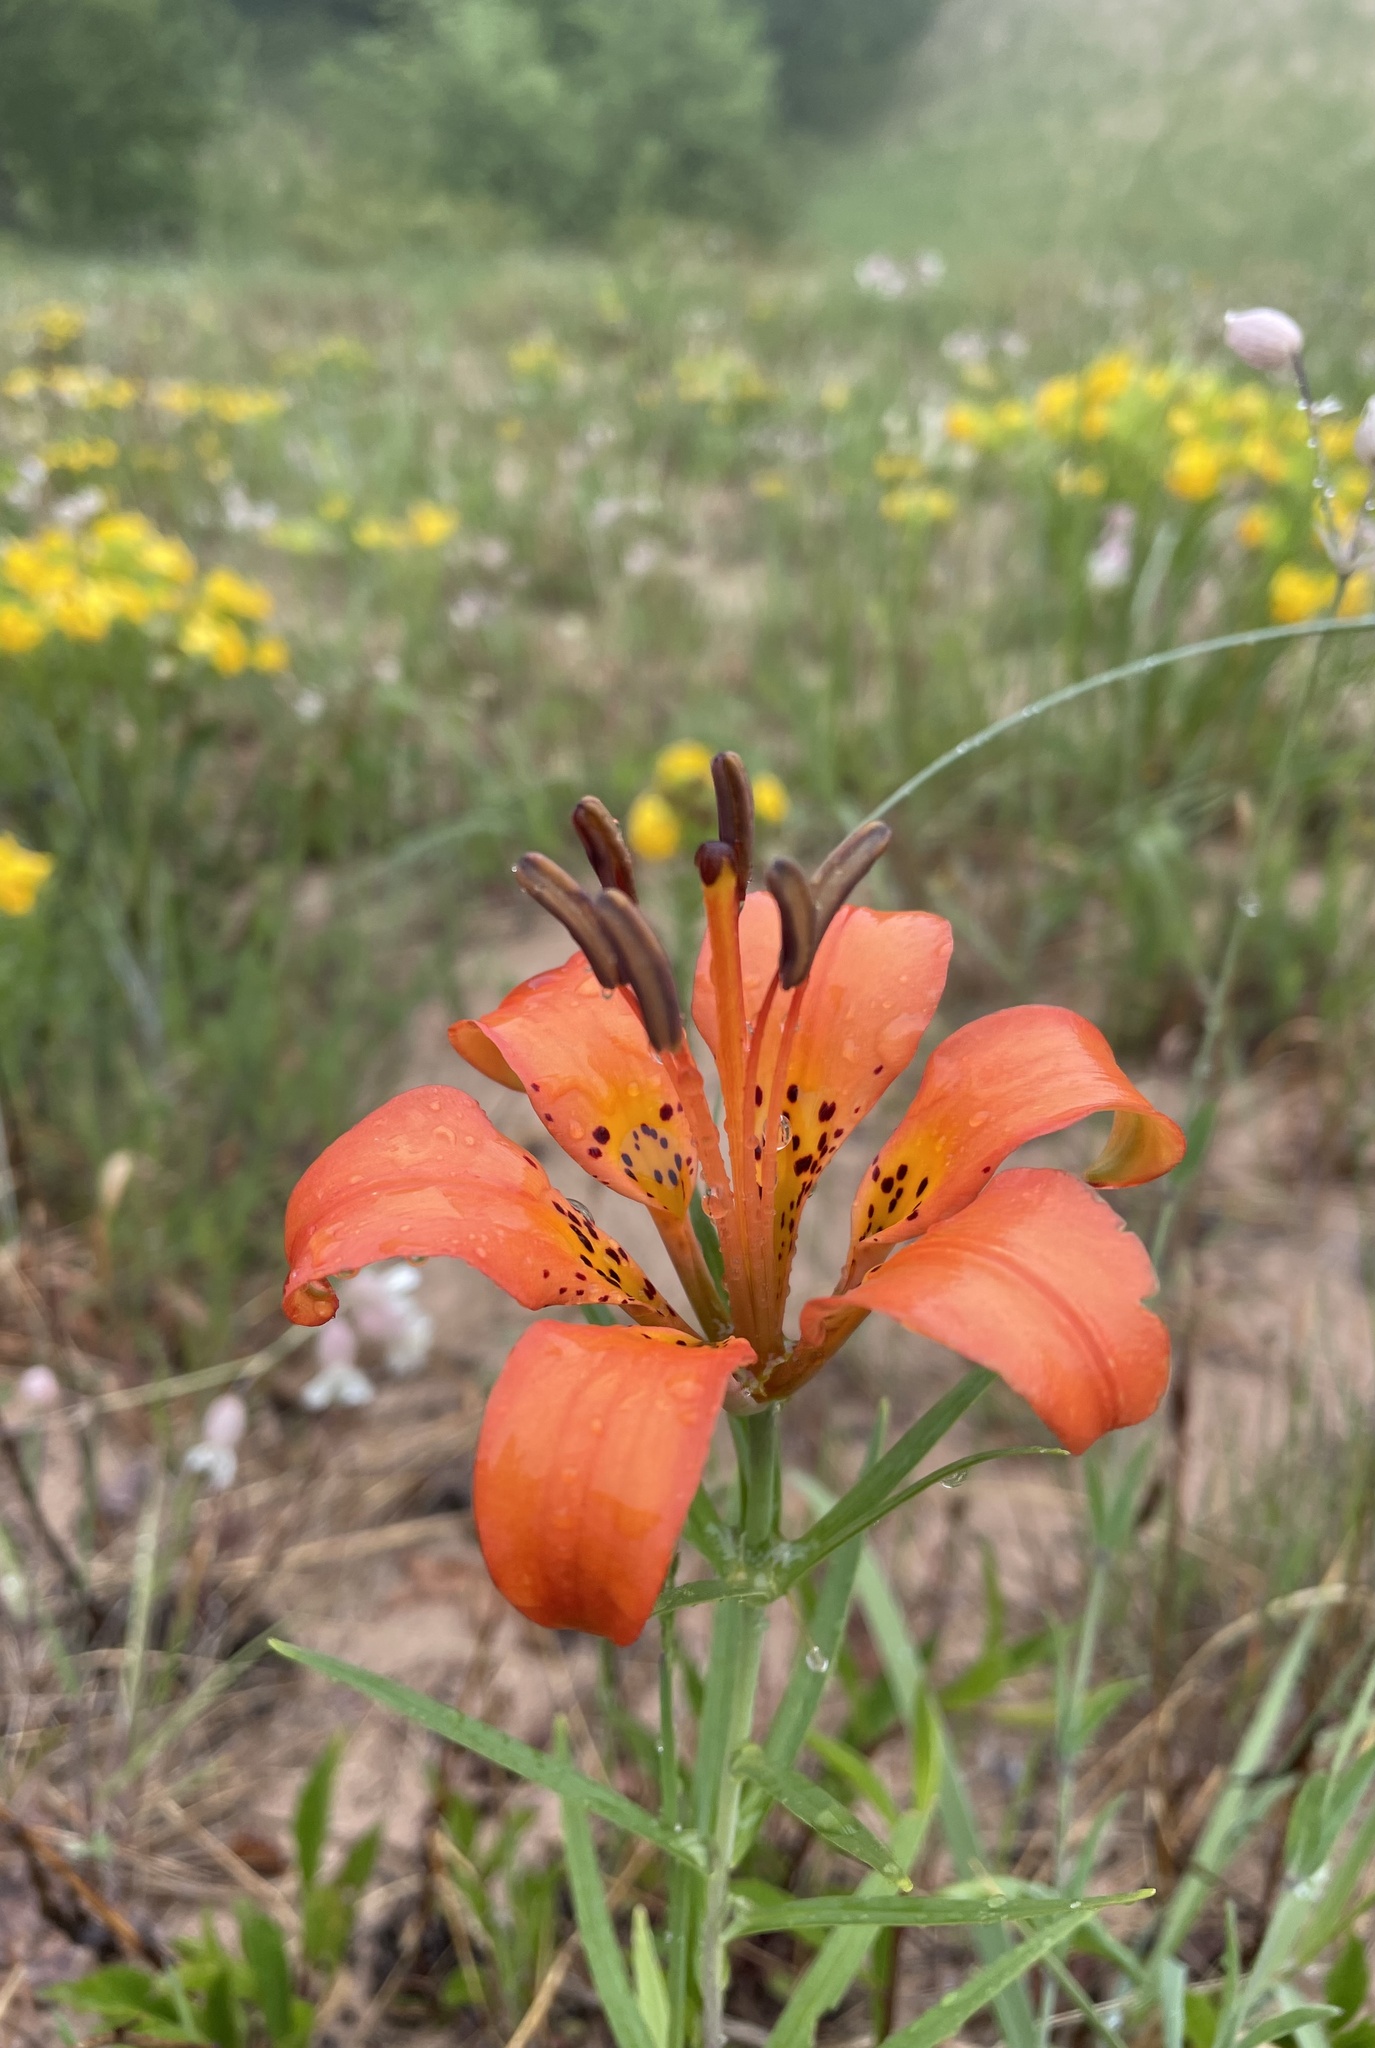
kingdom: Plantae
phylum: Tracheophyta
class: Liliopsida
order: Liliales
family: Liliaceae
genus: Lilium
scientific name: Lilium philadelphicum
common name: Red lily
